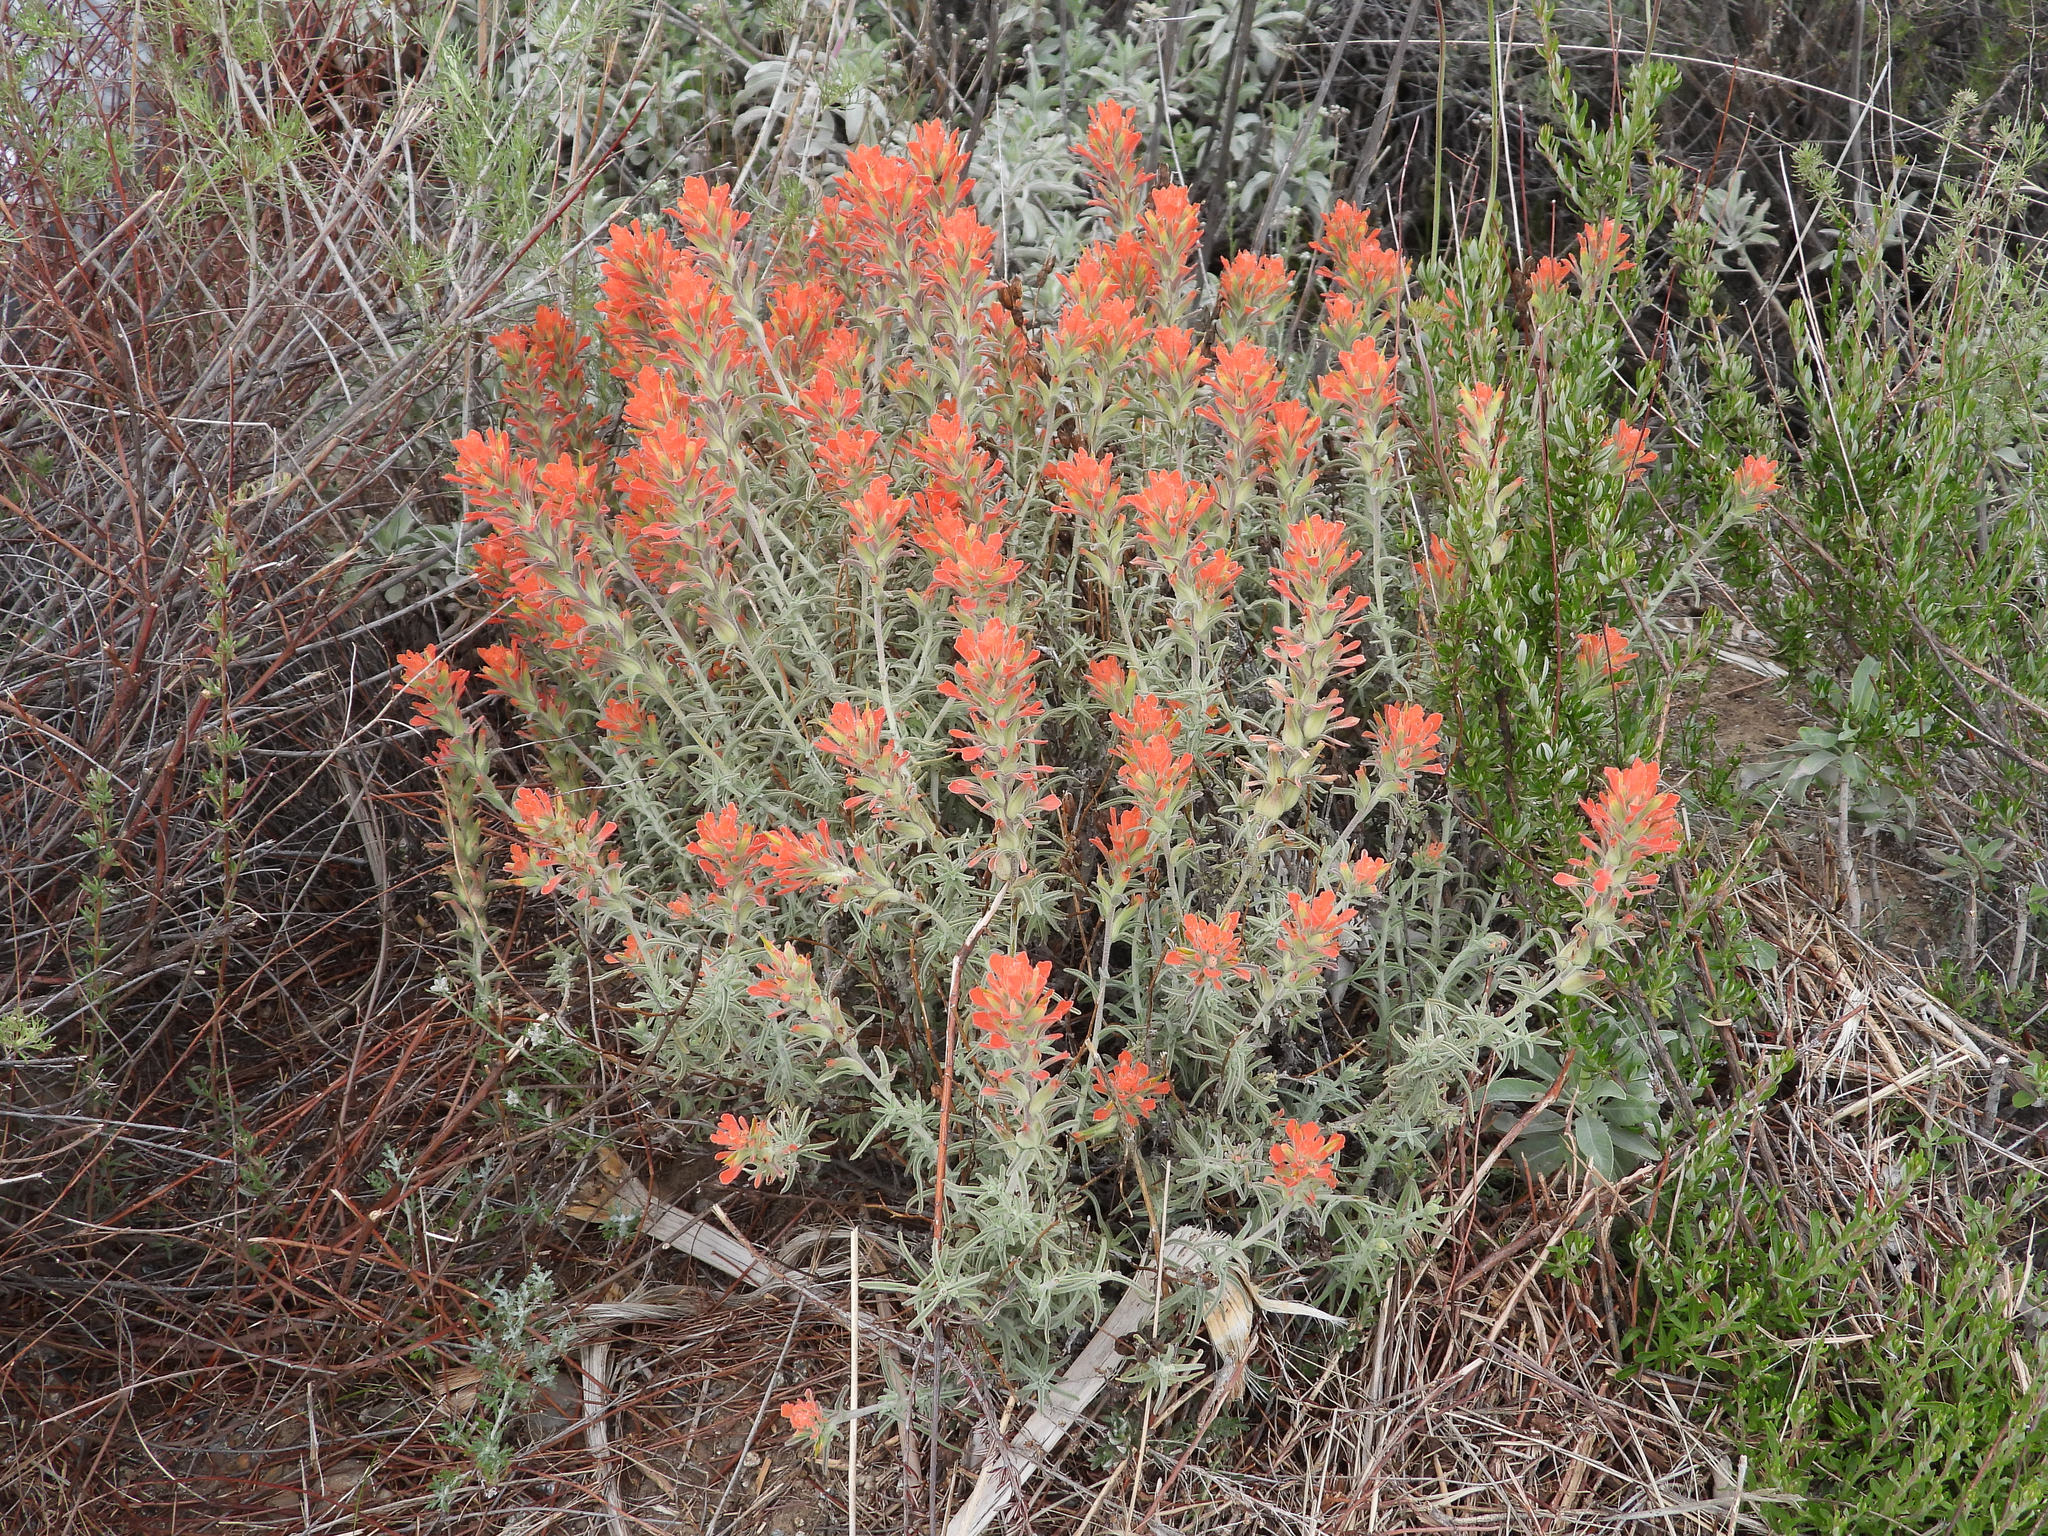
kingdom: Plantae
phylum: Tracheophyta
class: Magnoliopsida
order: Lamiales
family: Orobanchaceae
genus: Castilleja
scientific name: Castilleja foliolosa
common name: Woolly indian paintbrush
